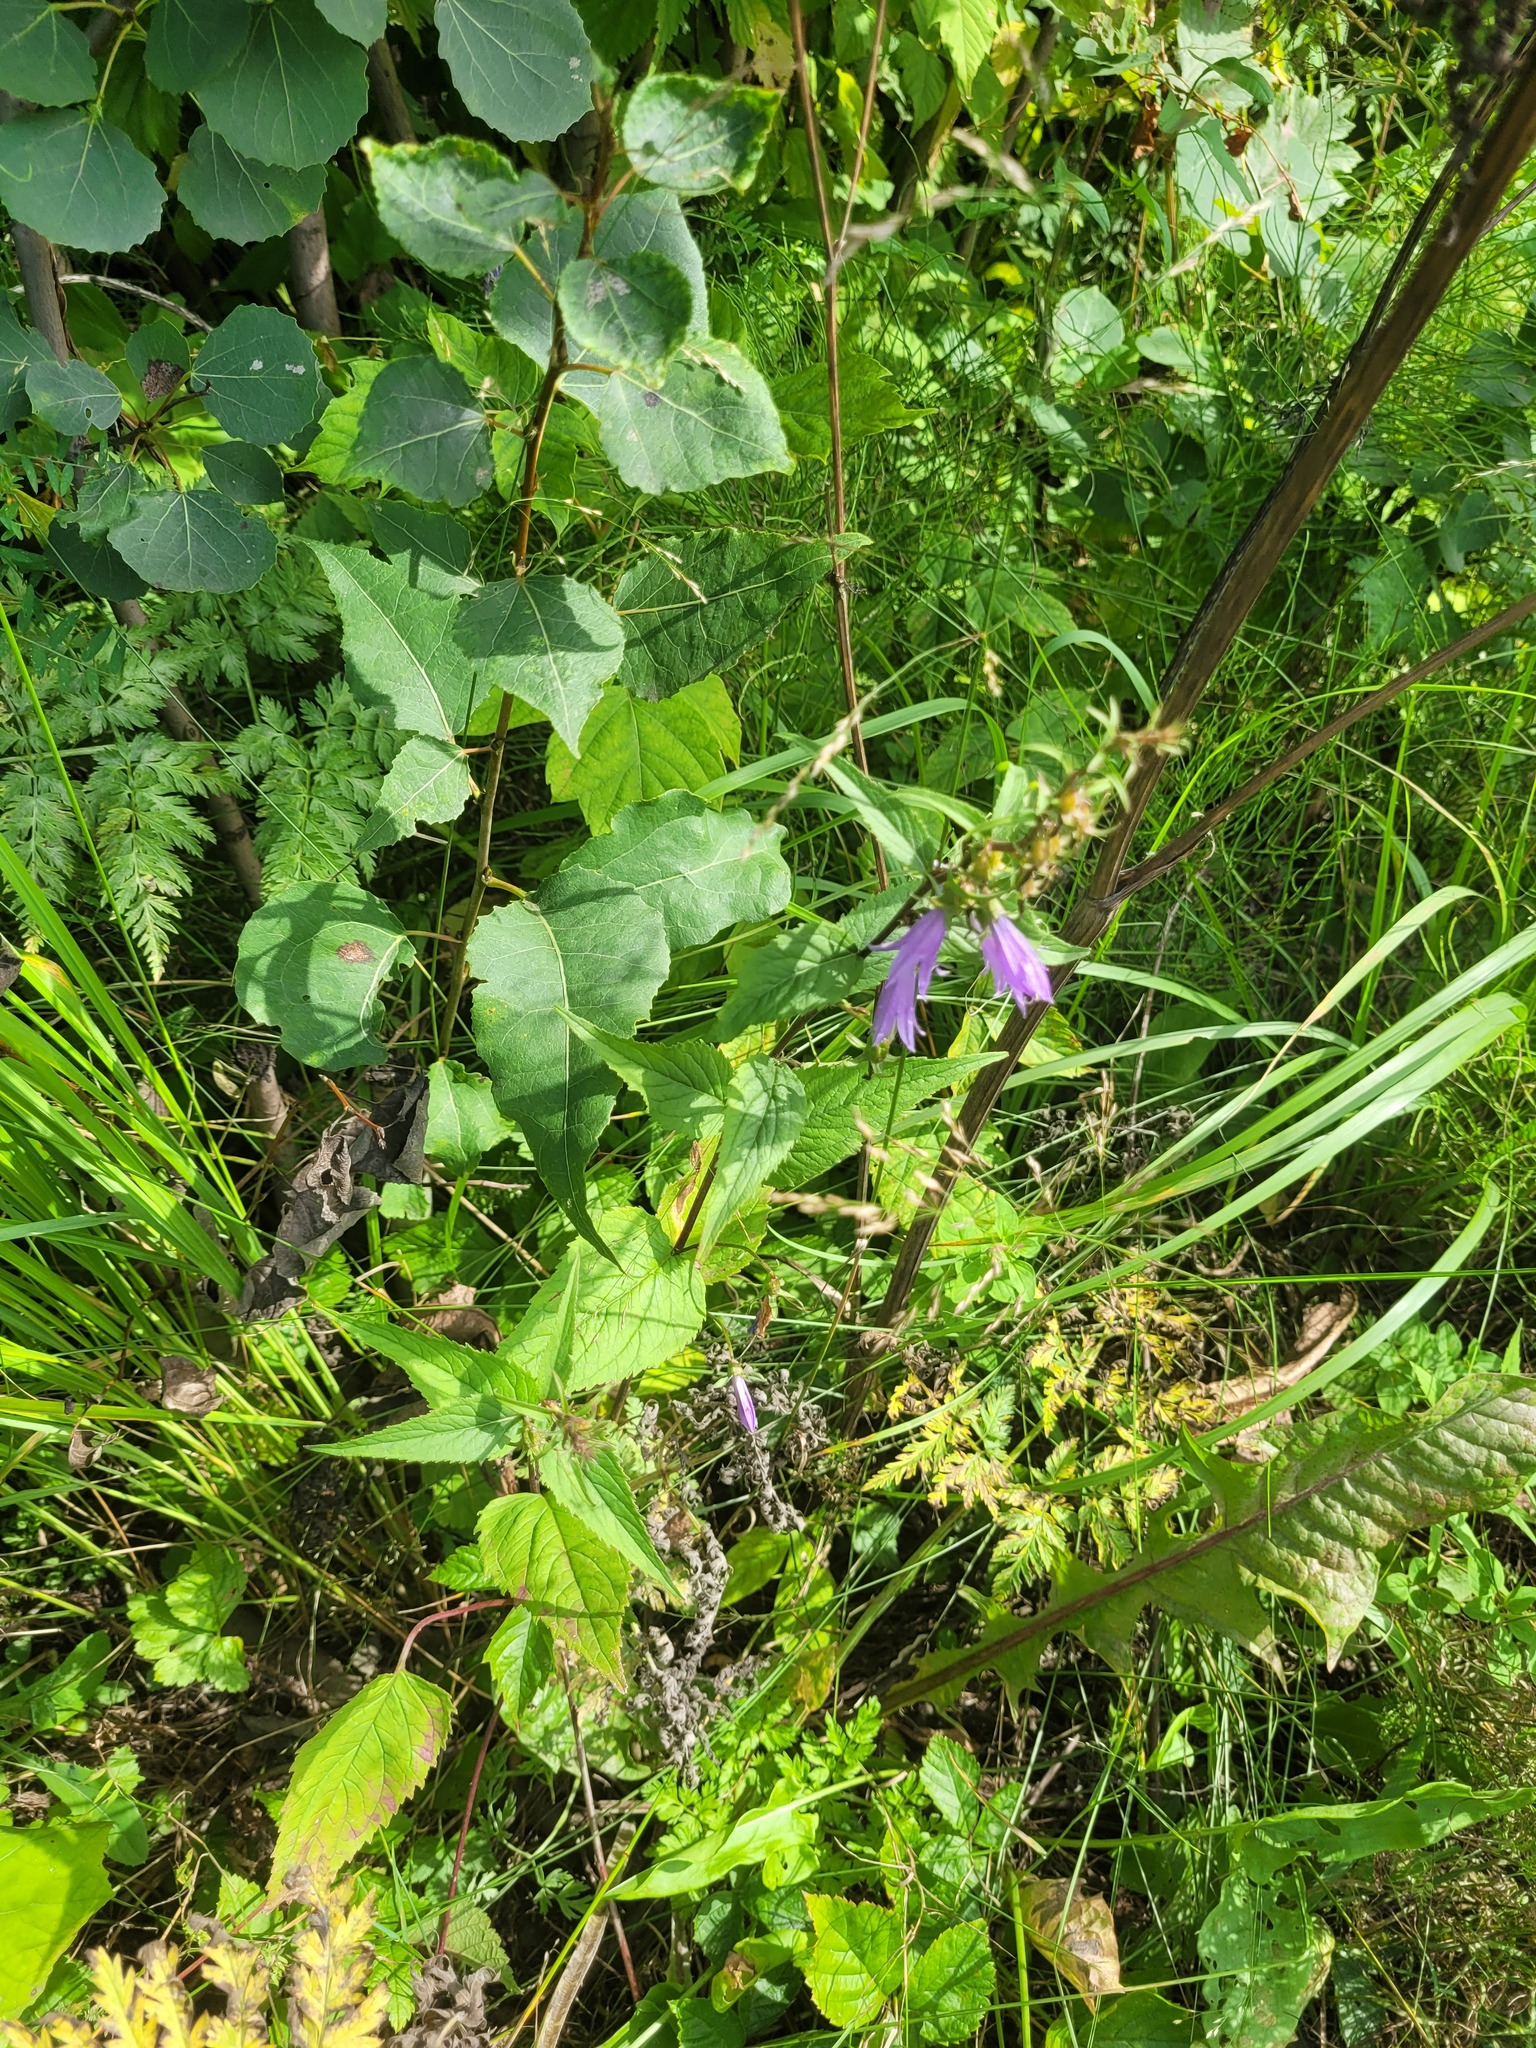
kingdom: Plantae
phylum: Tracheophyta
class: Magnoliopsida
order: Asterales
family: Campanulaceae
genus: Campanula
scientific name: Campanula rapunculoides
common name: Creeping bellflower
